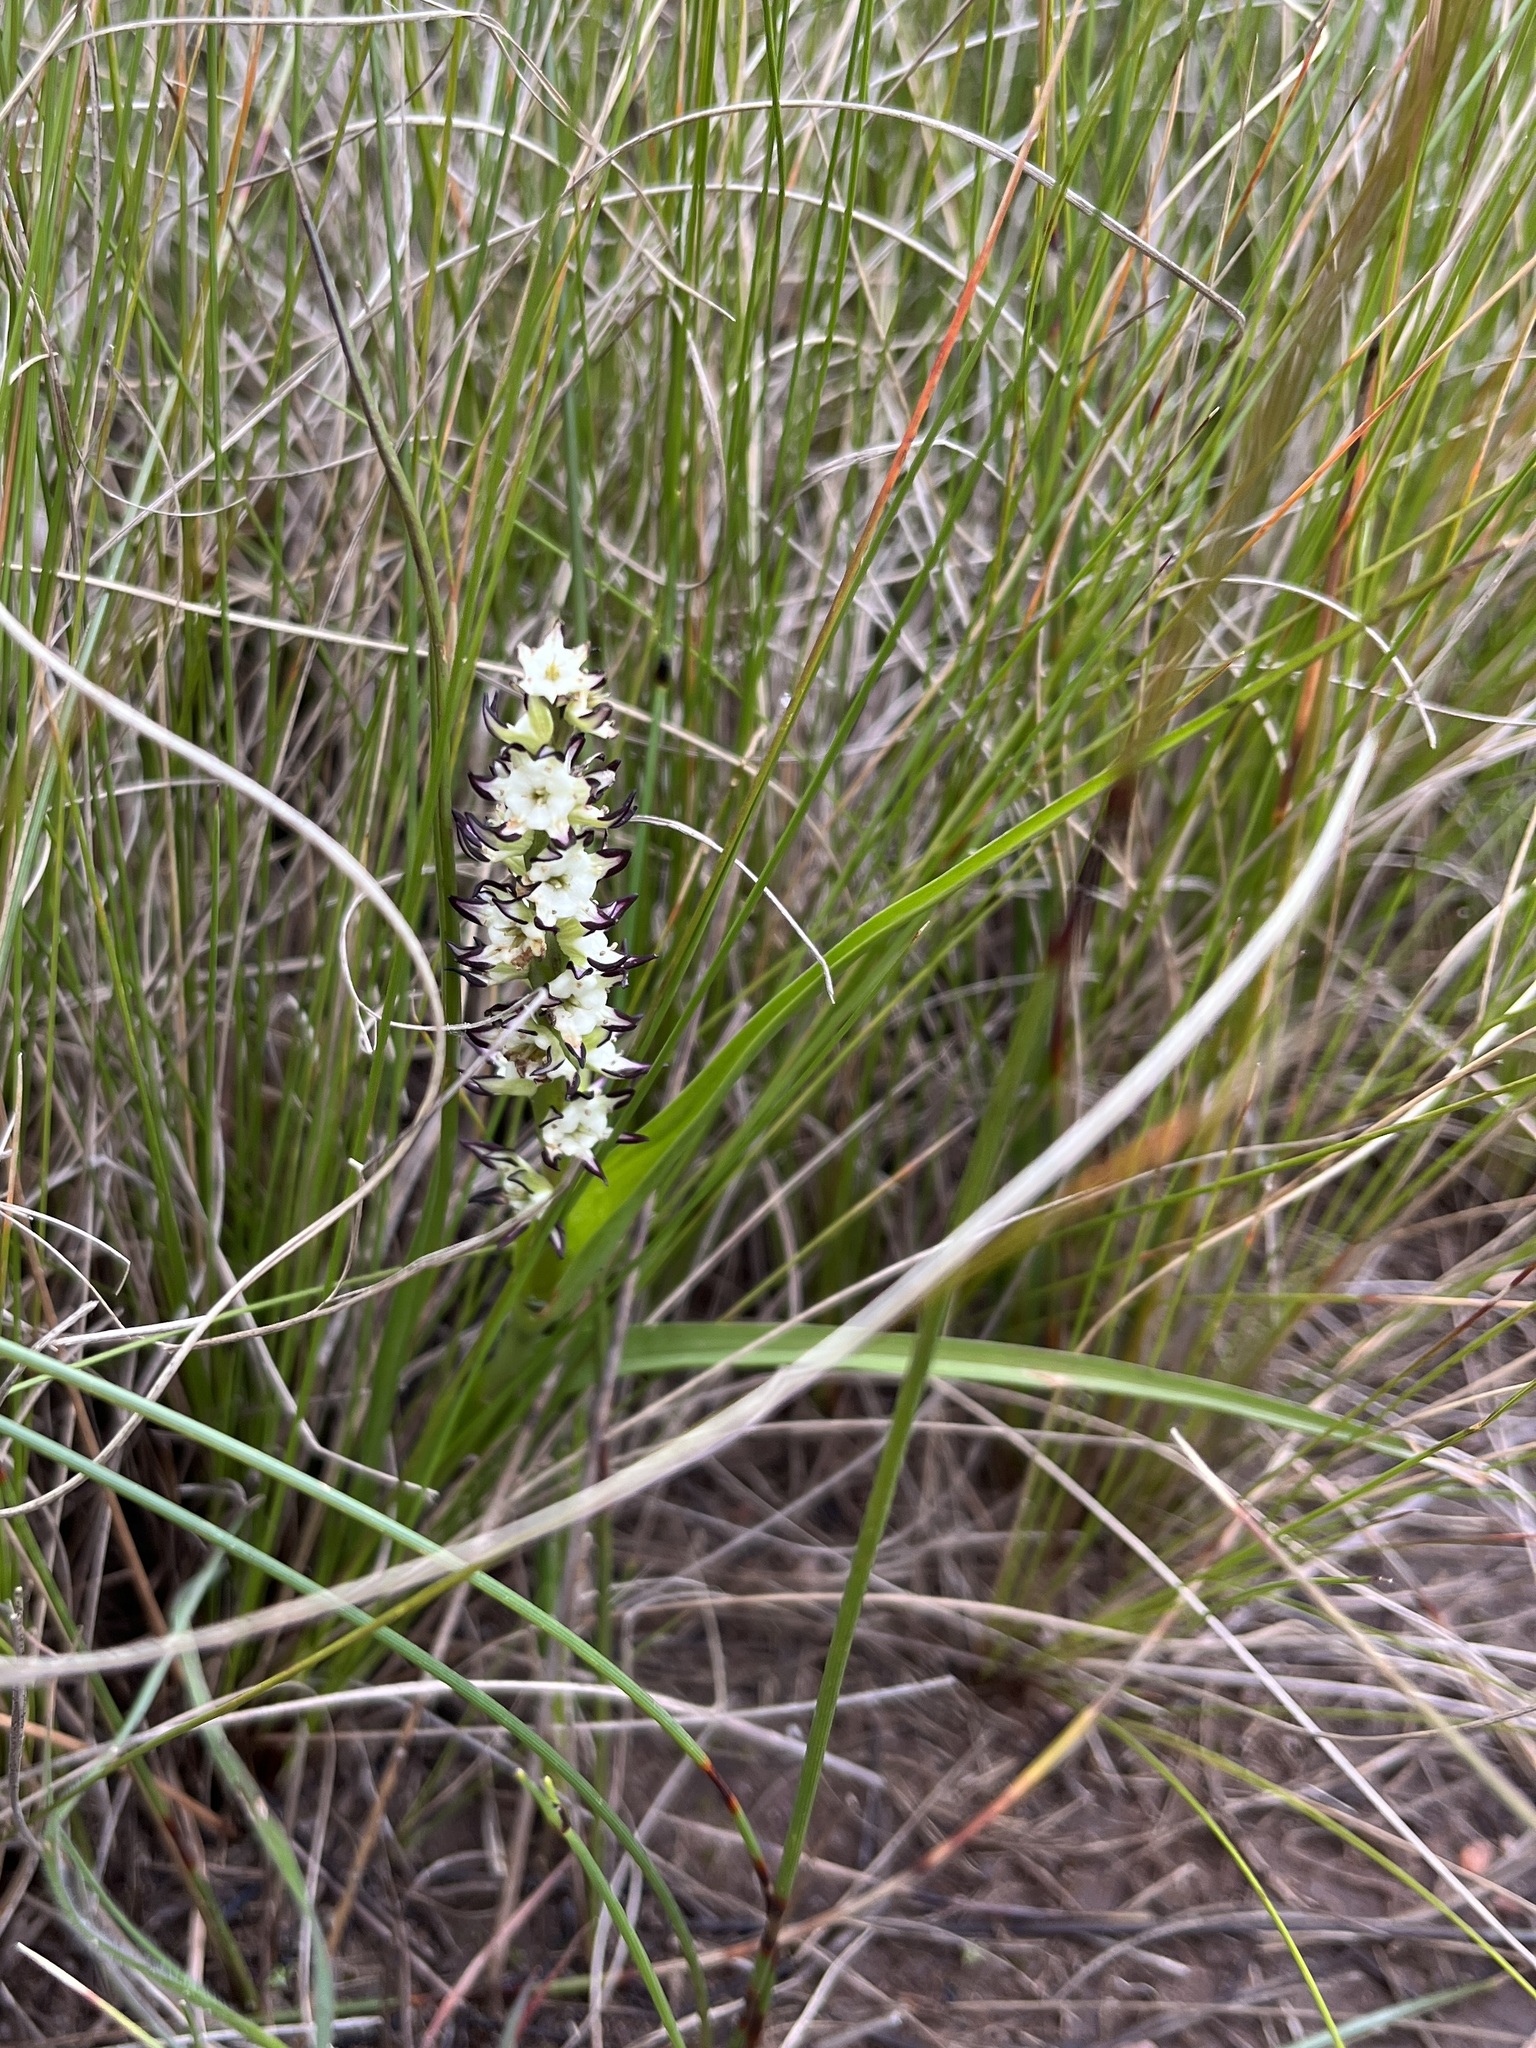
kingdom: Plantae
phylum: Tracheophyta
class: Liliopsida
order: Liliales
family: Colchicaceae
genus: Wurmbea
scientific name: Wurmbea spicata
